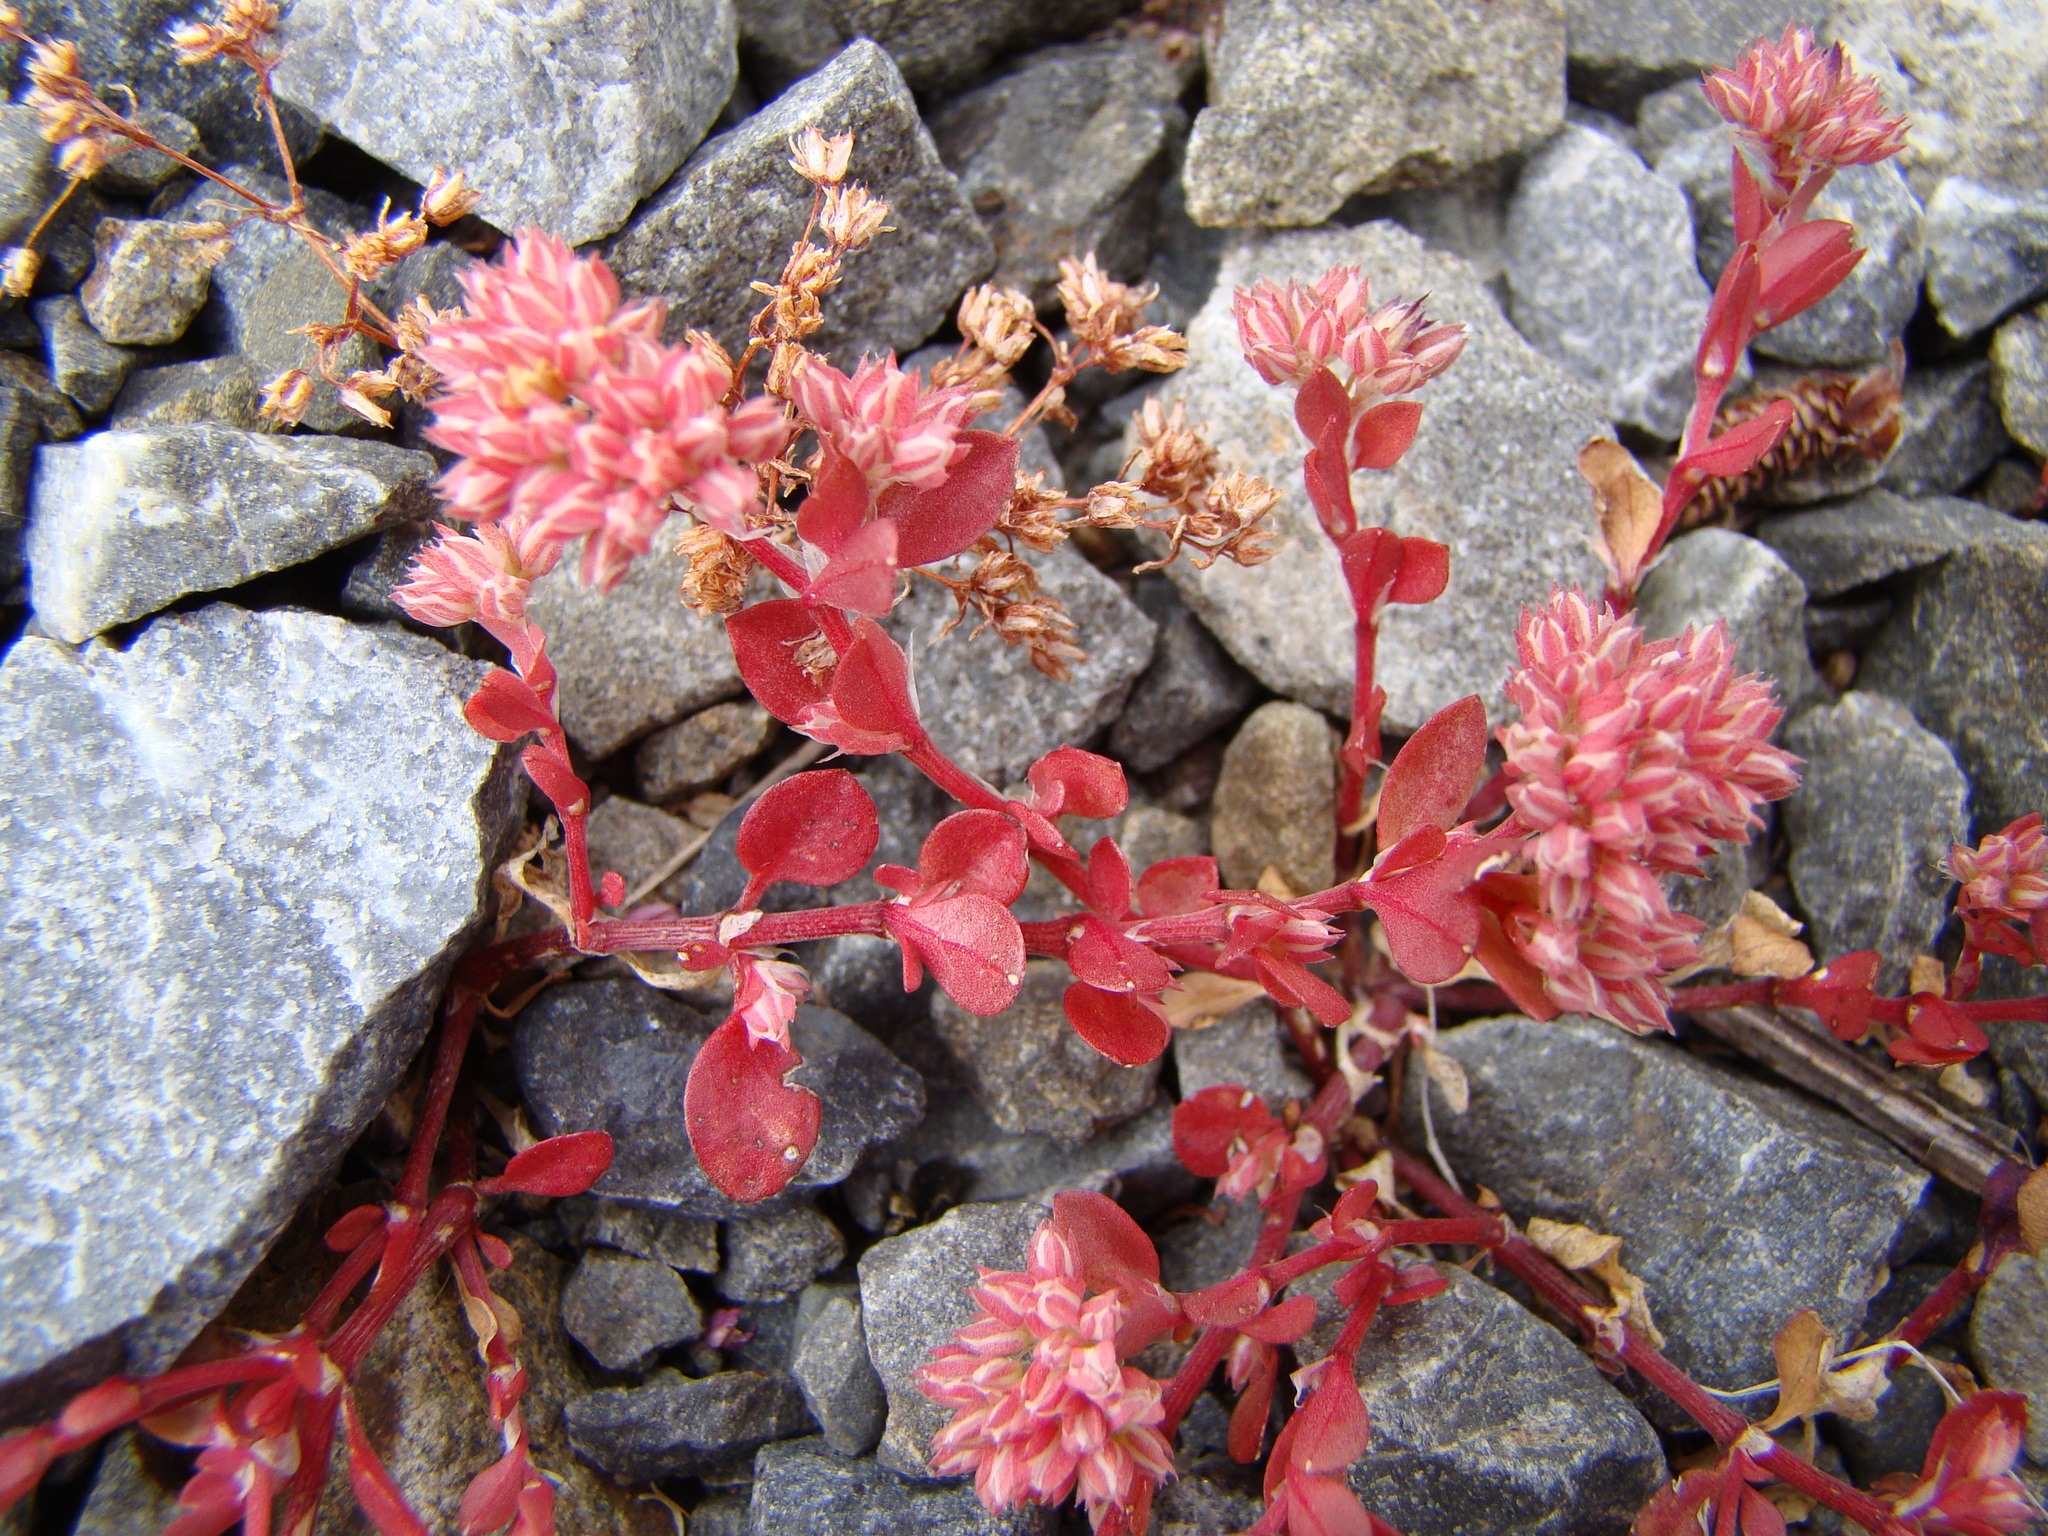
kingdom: Plantae
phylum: Tracheophyta
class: Magnoliopsida
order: Caryophyllales
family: Caryophyllaceae
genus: Polycarpon
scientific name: Polycarpon tetraphyllum
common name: Four-leaved all-seed
